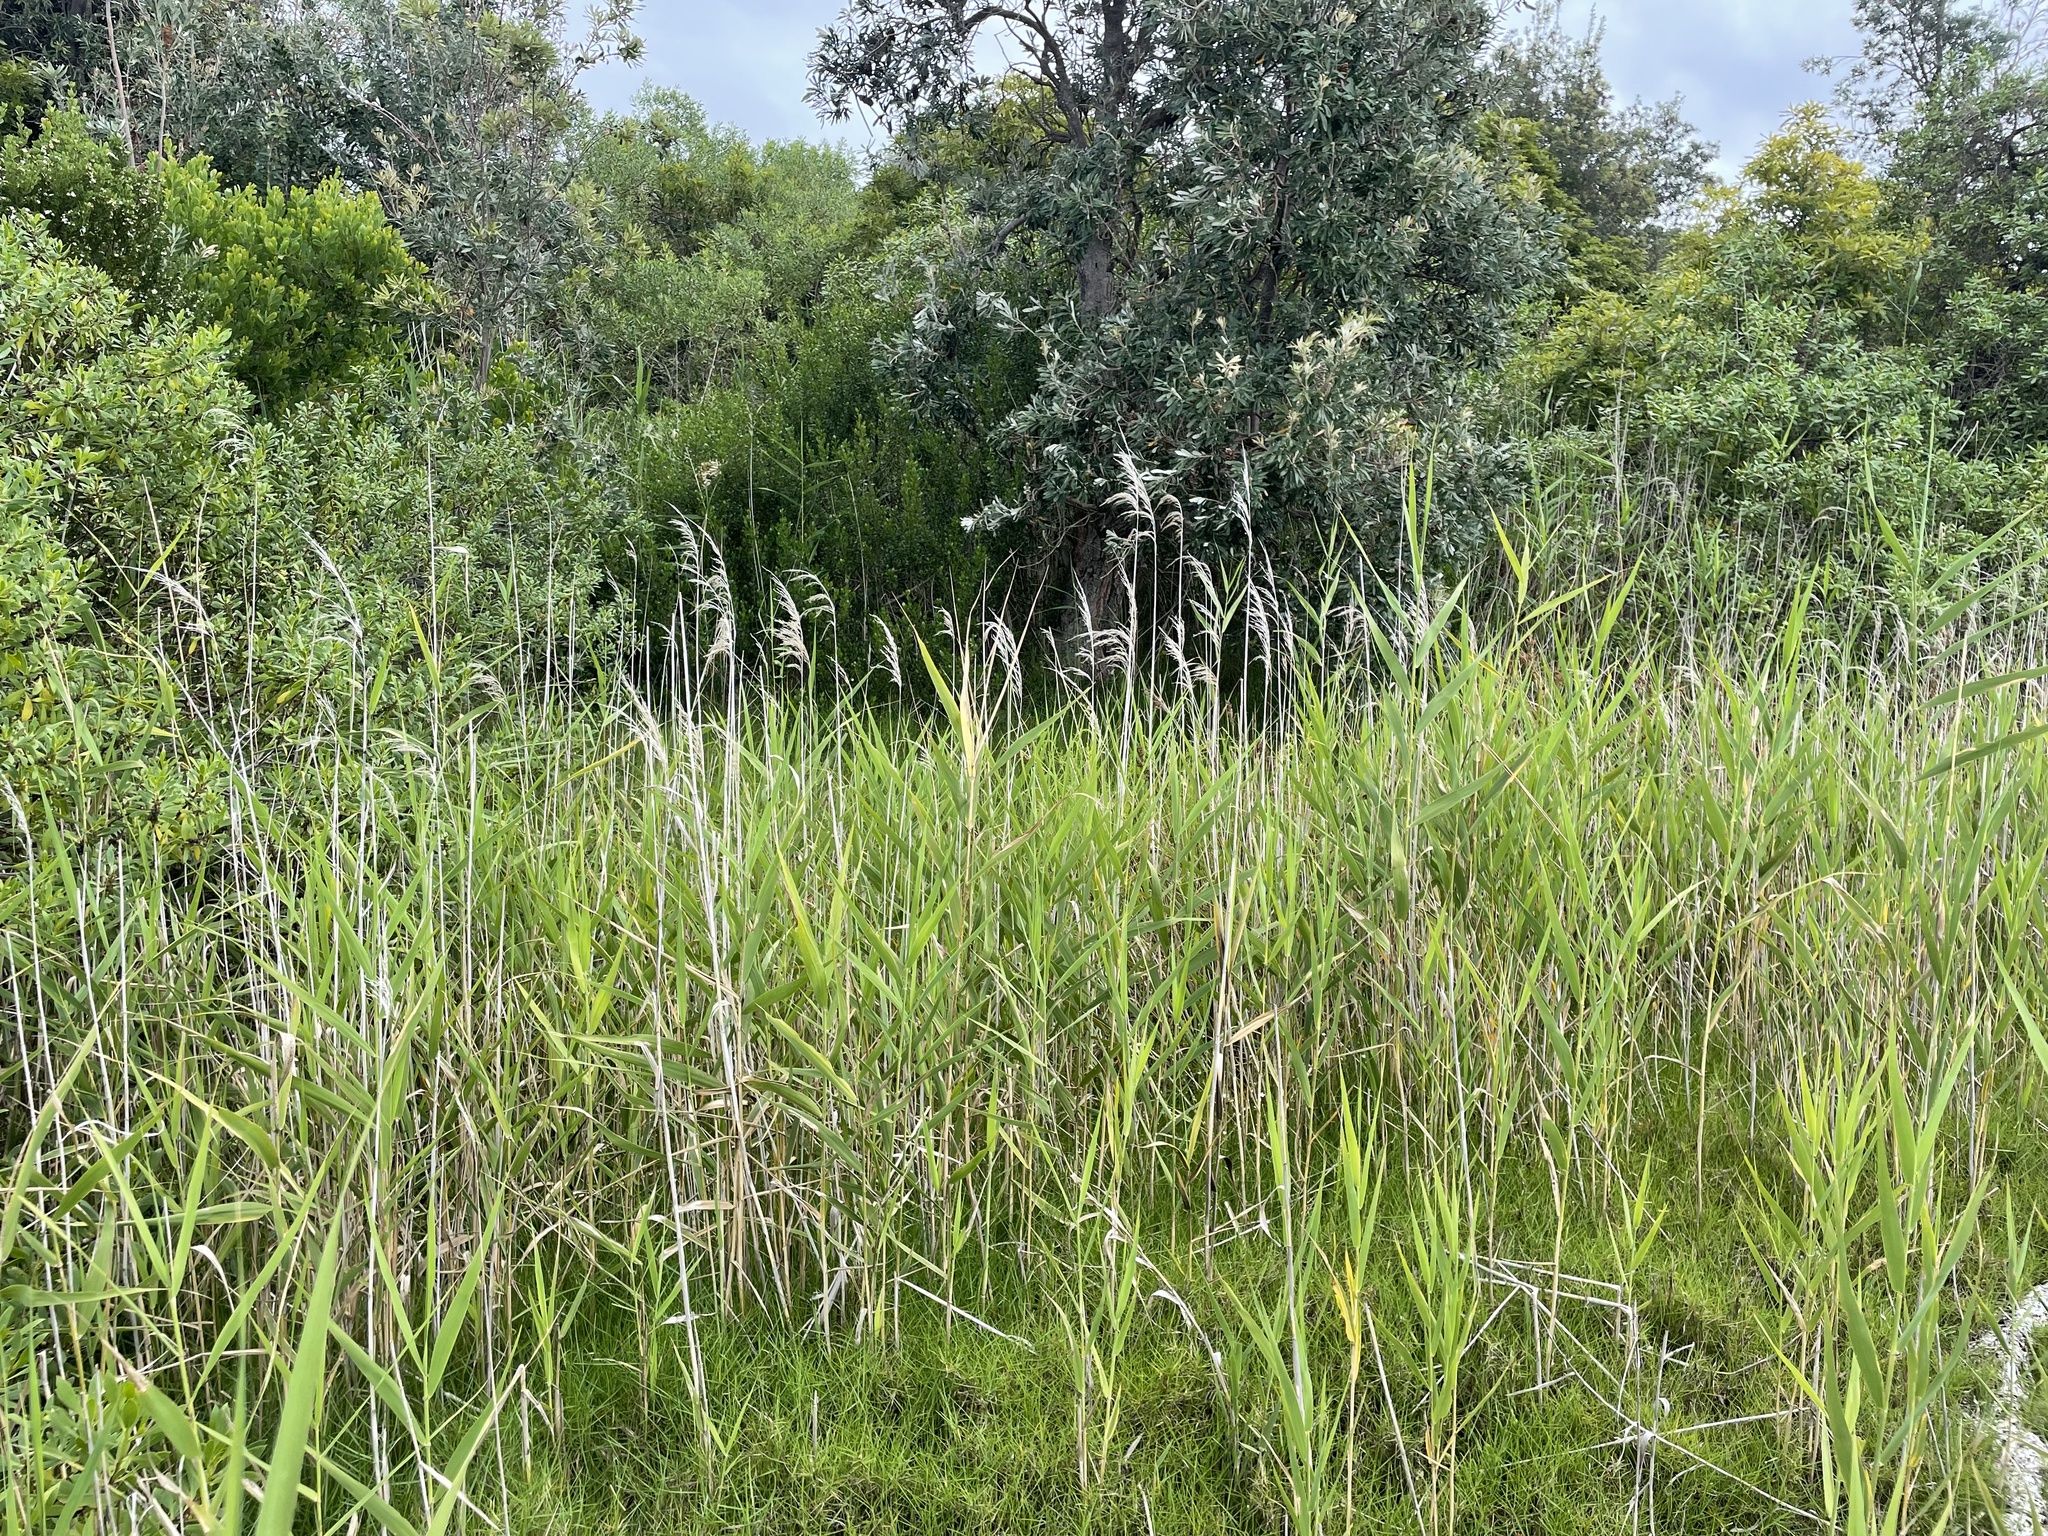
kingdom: Plantae
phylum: Tracheophyta
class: Liliopsida
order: Poales
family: Poaceae
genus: Phragmites
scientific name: Phragmites australis
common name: Common reed
